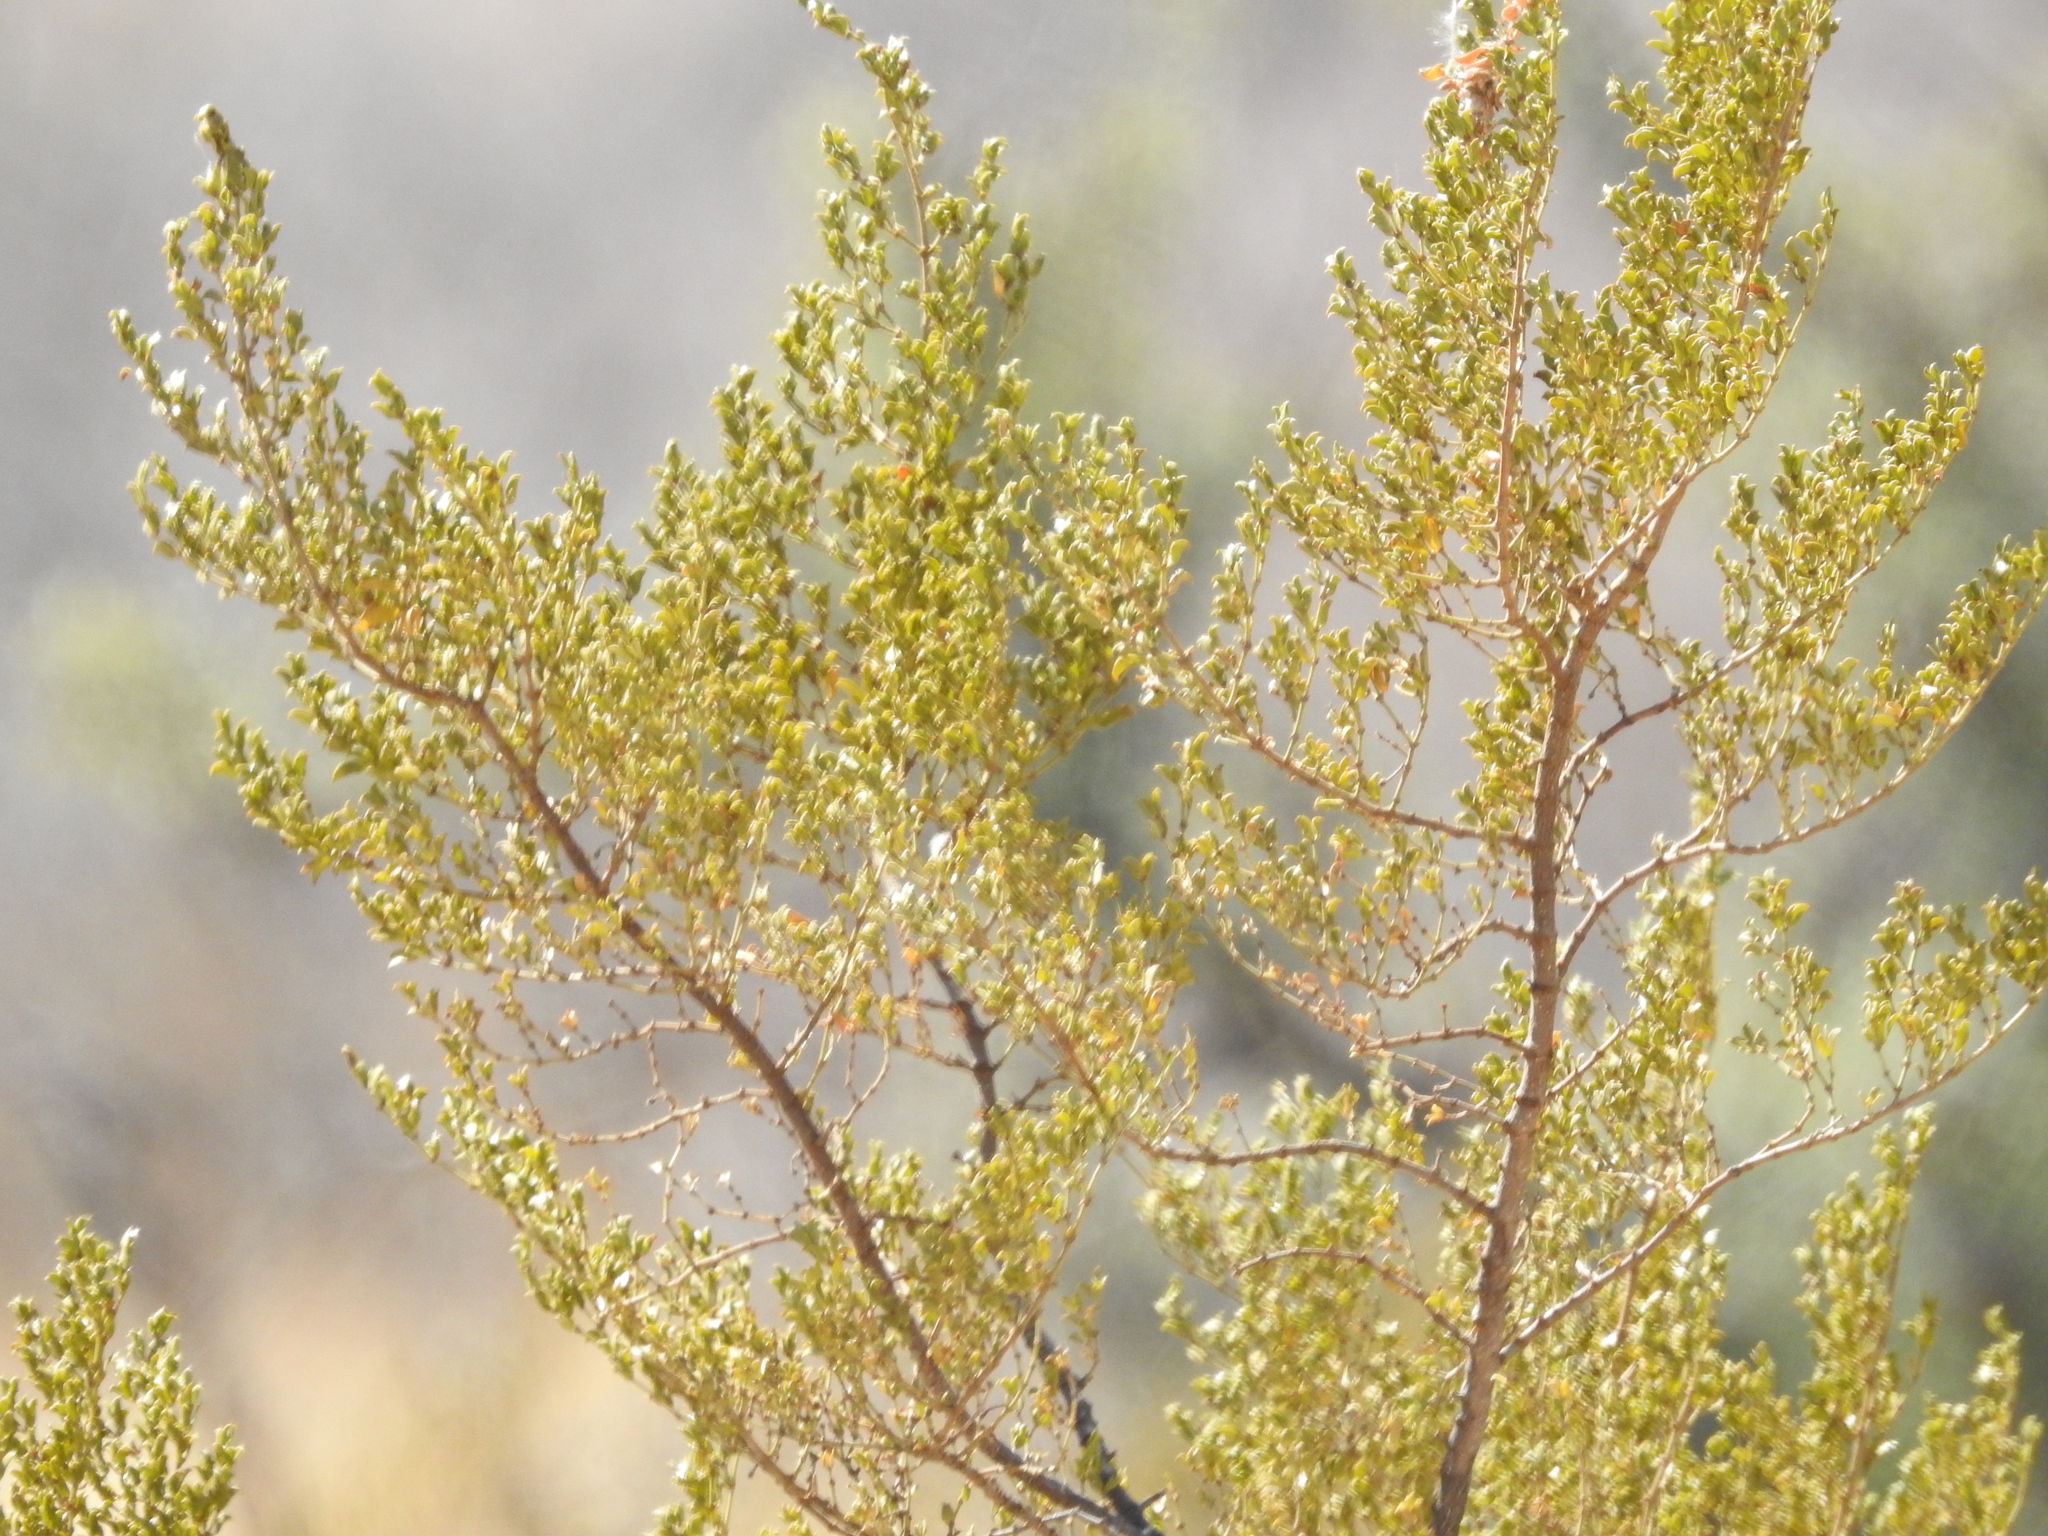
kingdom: Plantae
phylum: Tracheophyta
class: Magnoliopsida
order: Zygophyllales
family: Zygophyllaceae
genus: Larrea
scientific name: Larrea tridentata
